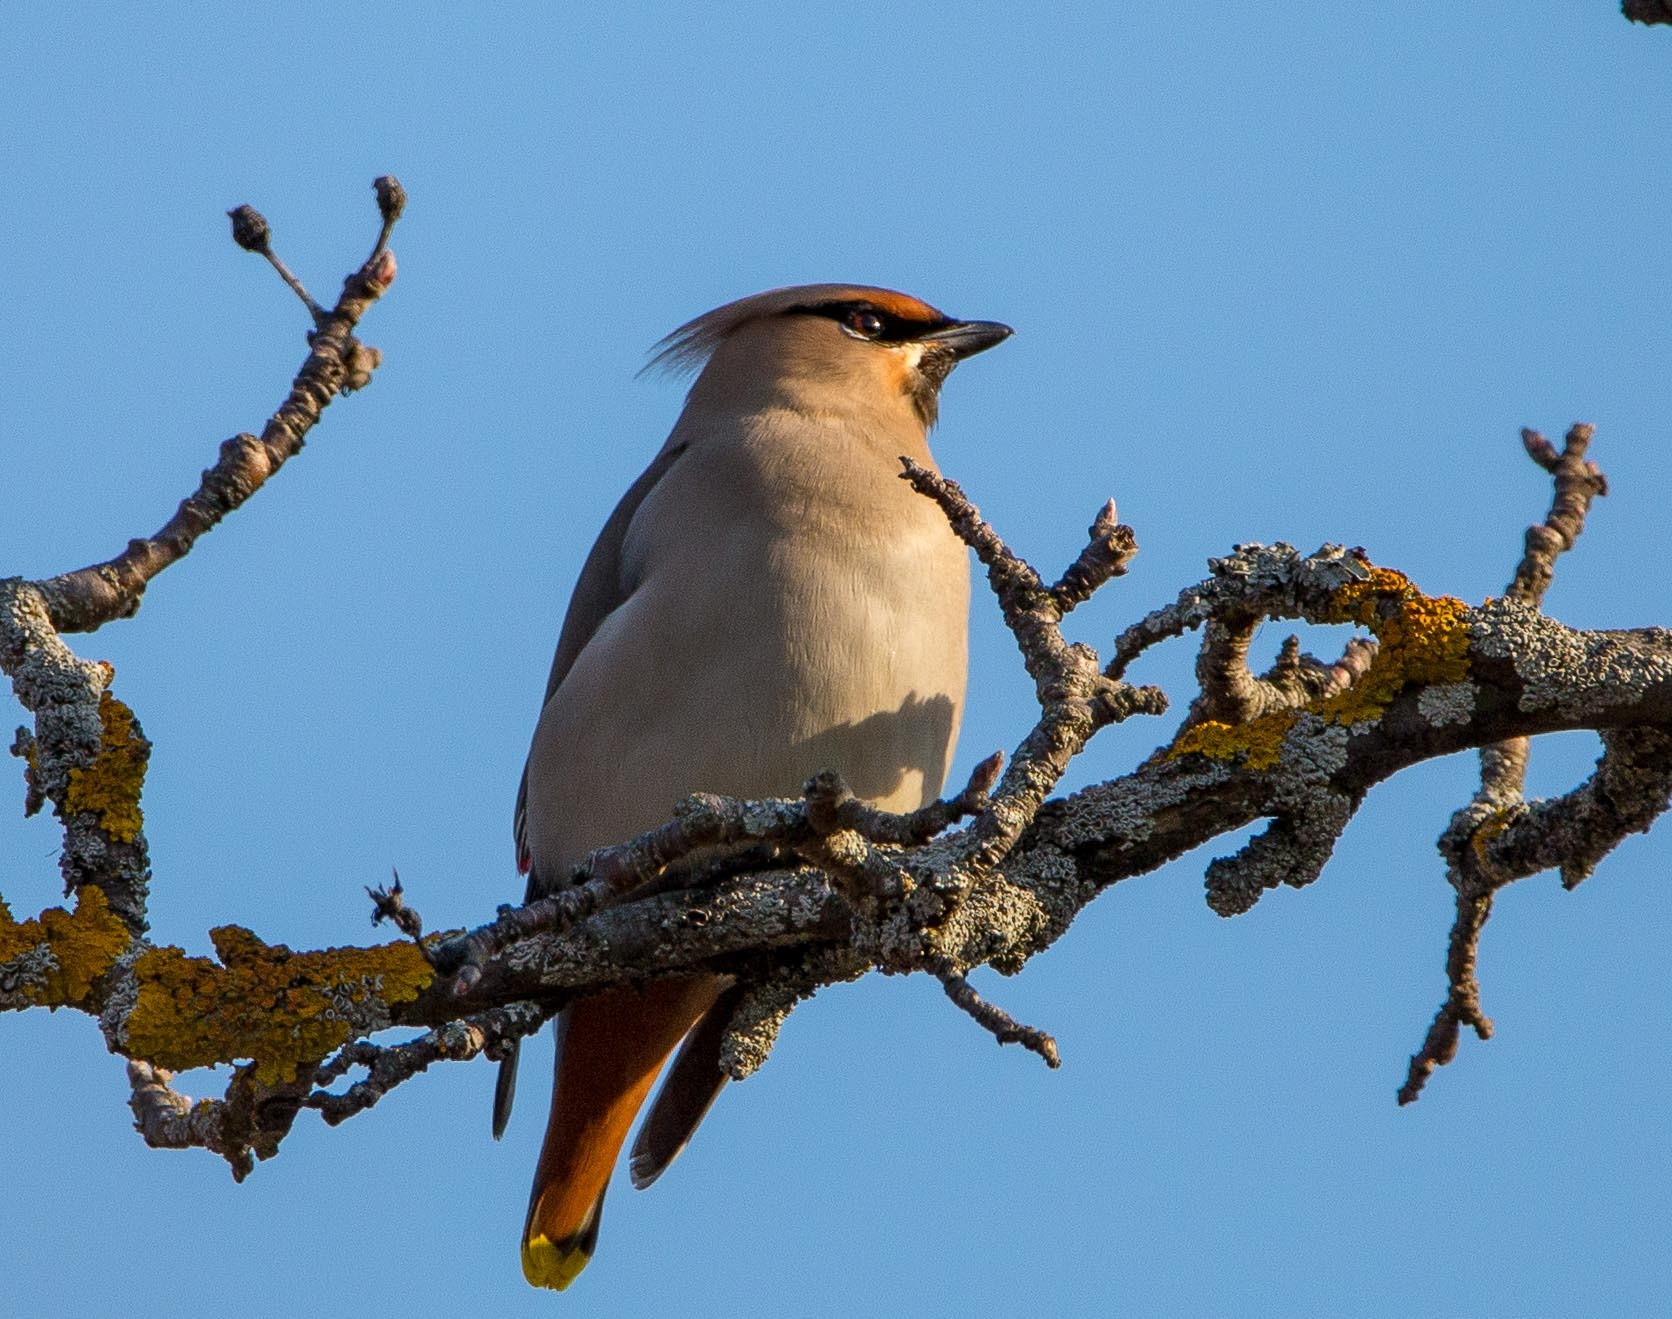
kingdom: Animalia
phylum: Chordata
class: Aves
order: Passeriformes
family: Bombycillidae
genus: Bombycilla
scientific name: Bombycilla garrulus
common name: Bohemian waxwing
